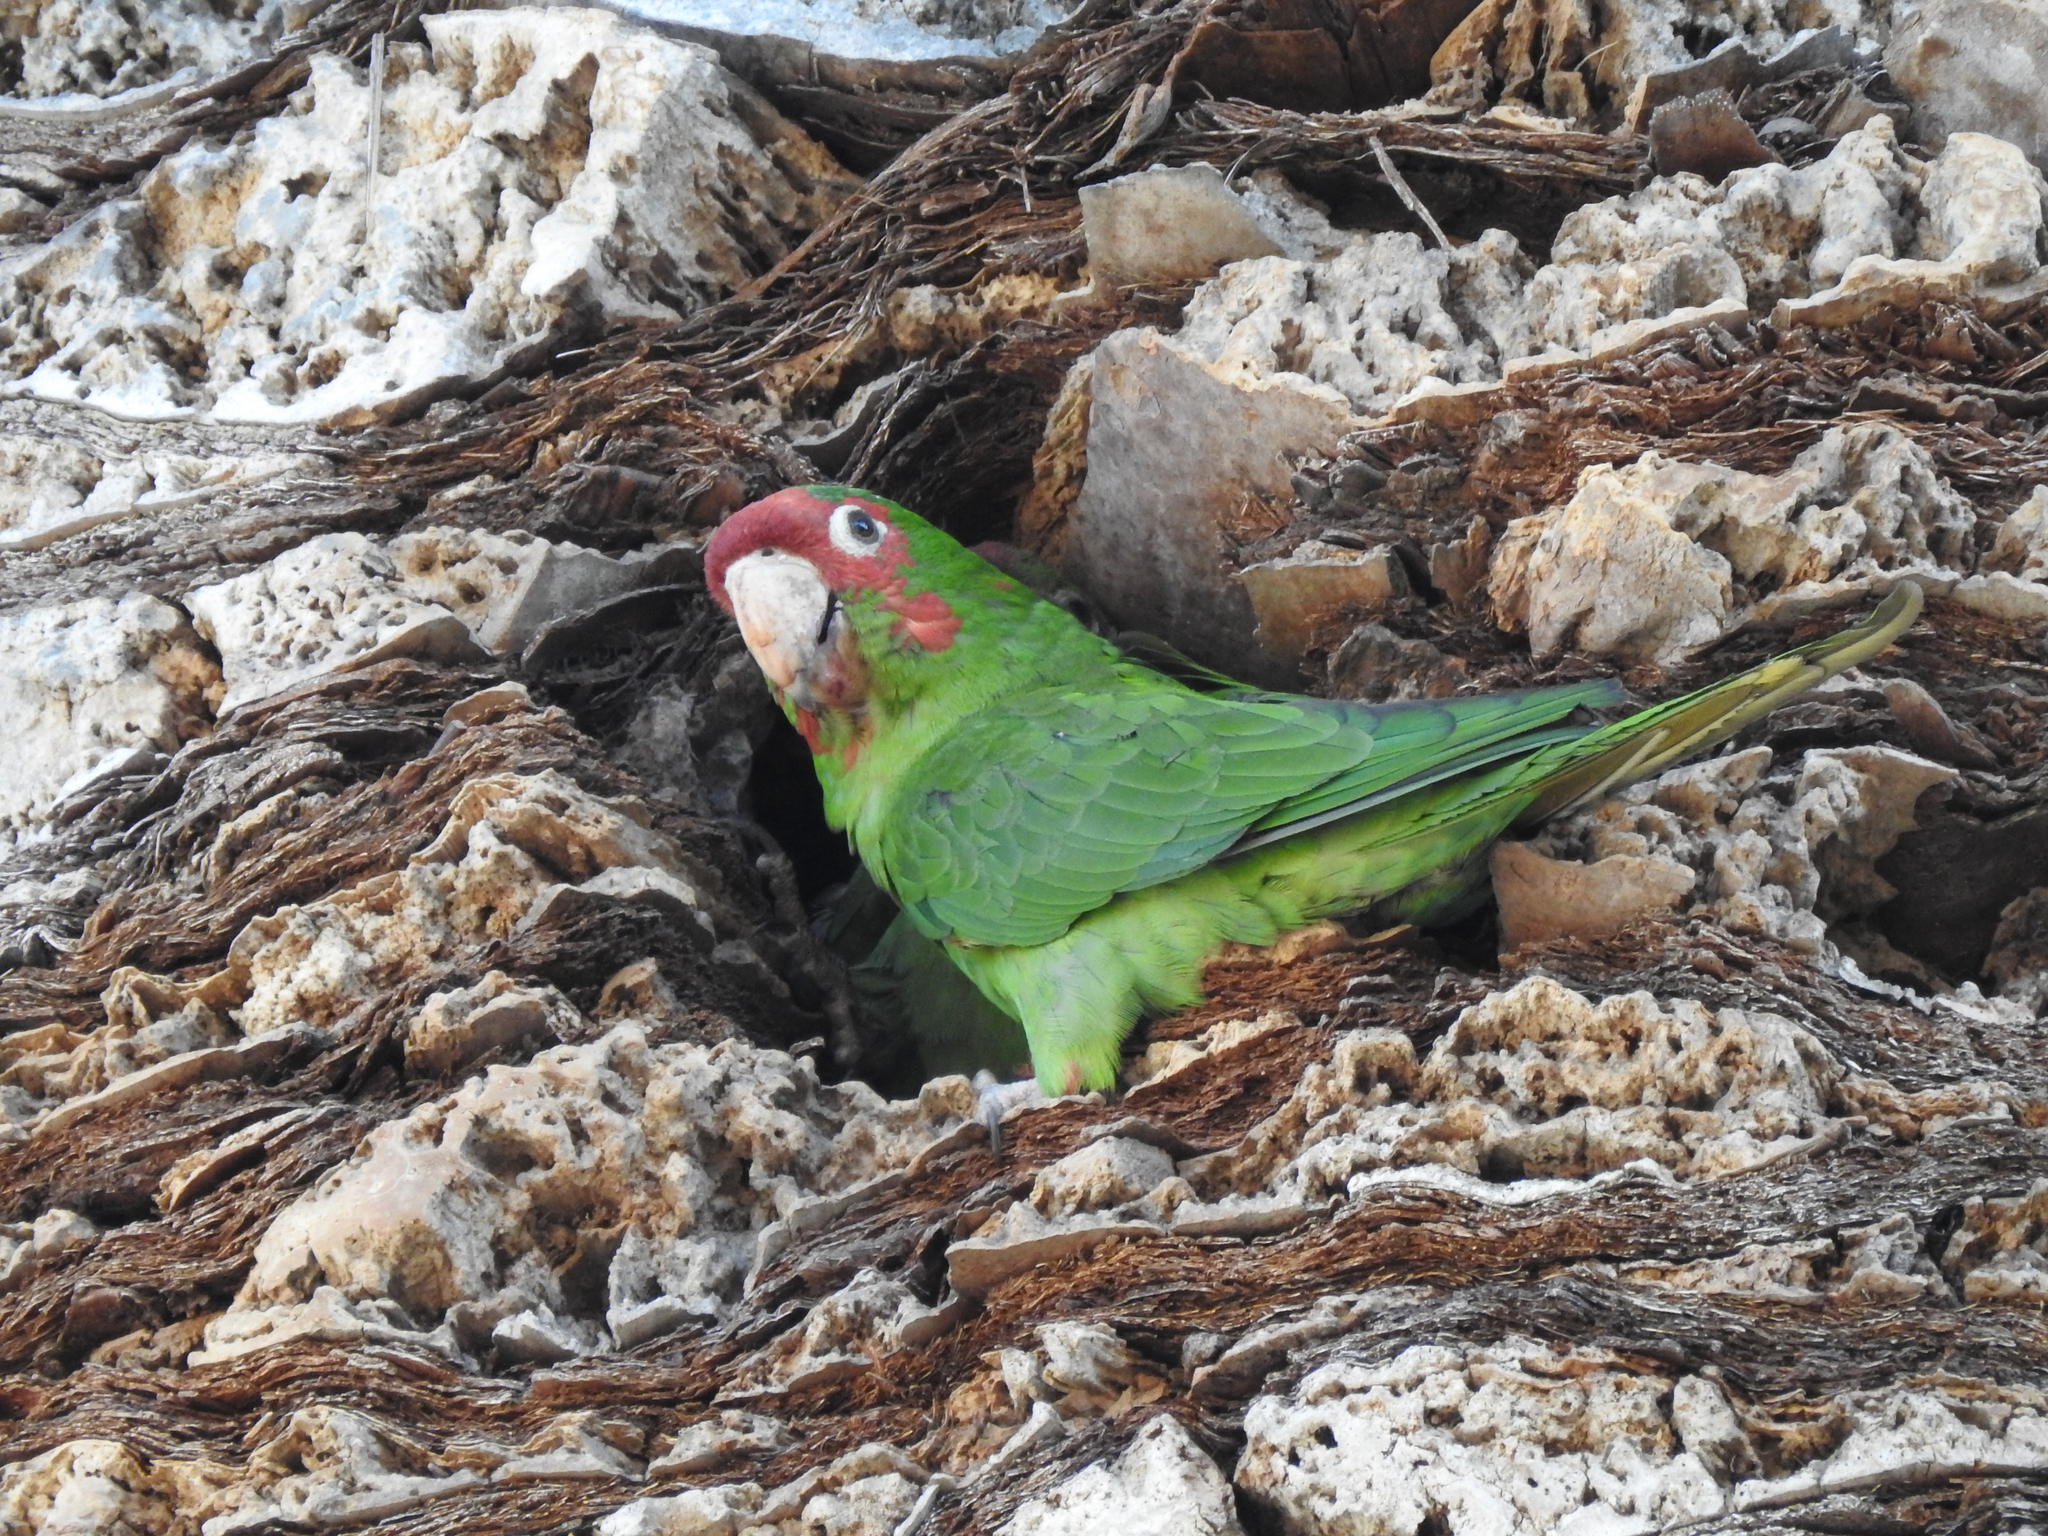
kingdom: Animalia
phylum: Chordata
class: Aves
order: Psittaciformes
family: Psittacidae
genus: Aratinga
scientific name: Aratinga mitrata
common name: Mitred parakeet
